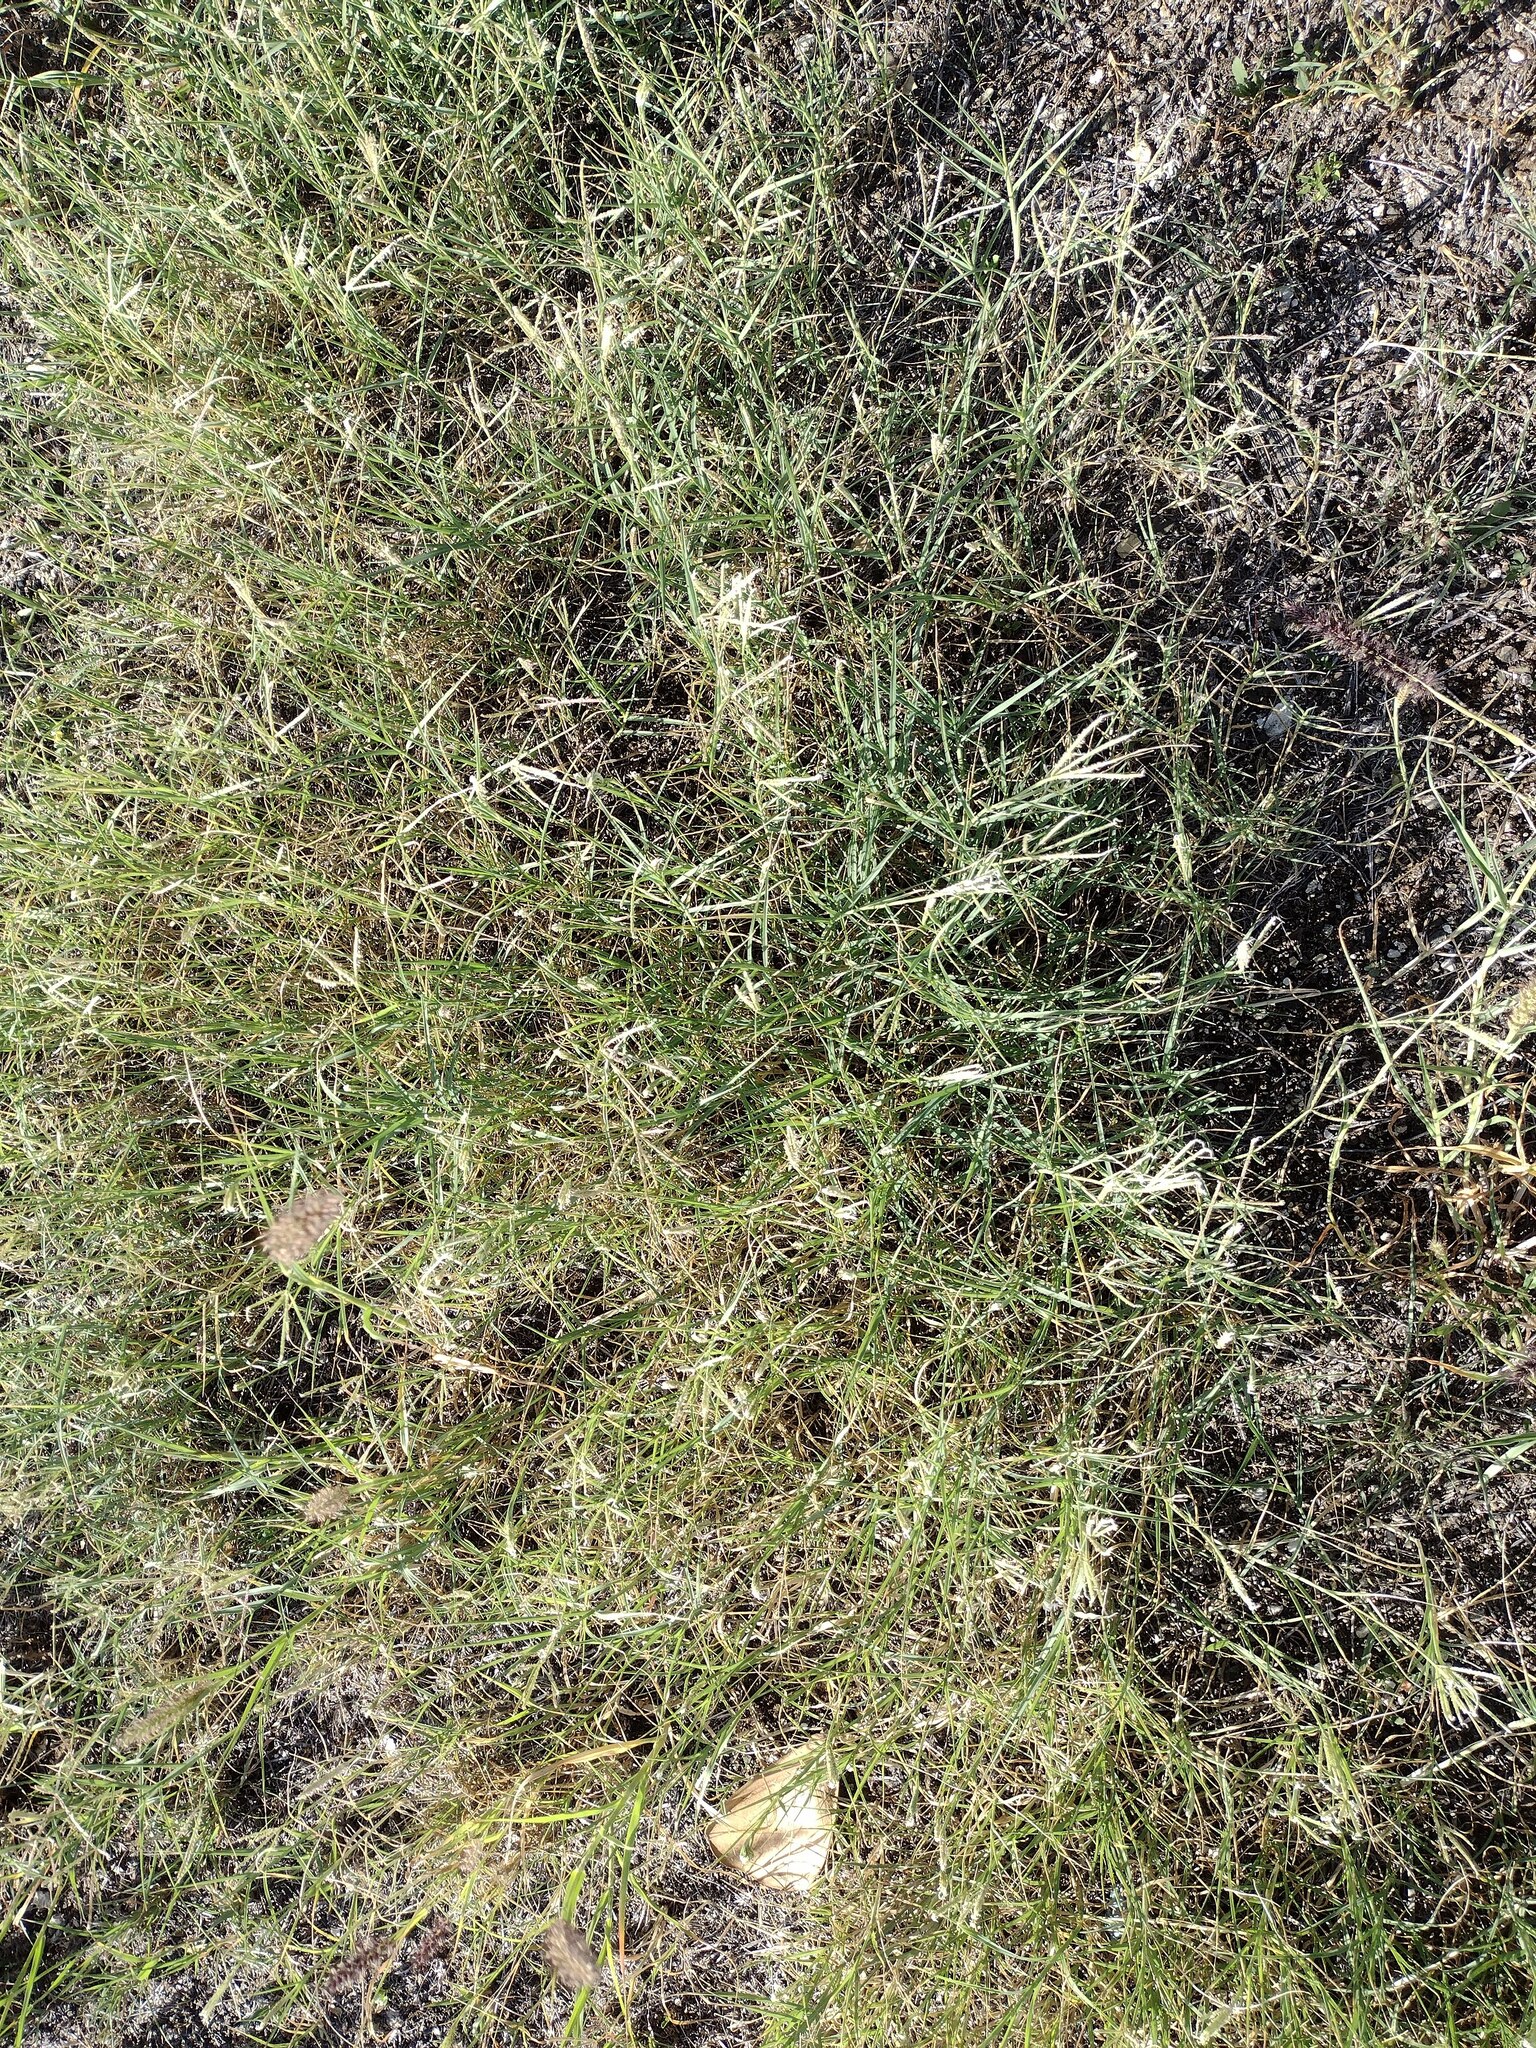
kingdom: Plantae
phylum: Tracheophyta
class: Liliopsida
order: Poales
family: Poaceae
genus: Cynodon
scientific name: Cynodon nlemfuensis
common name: African bermudagrass
